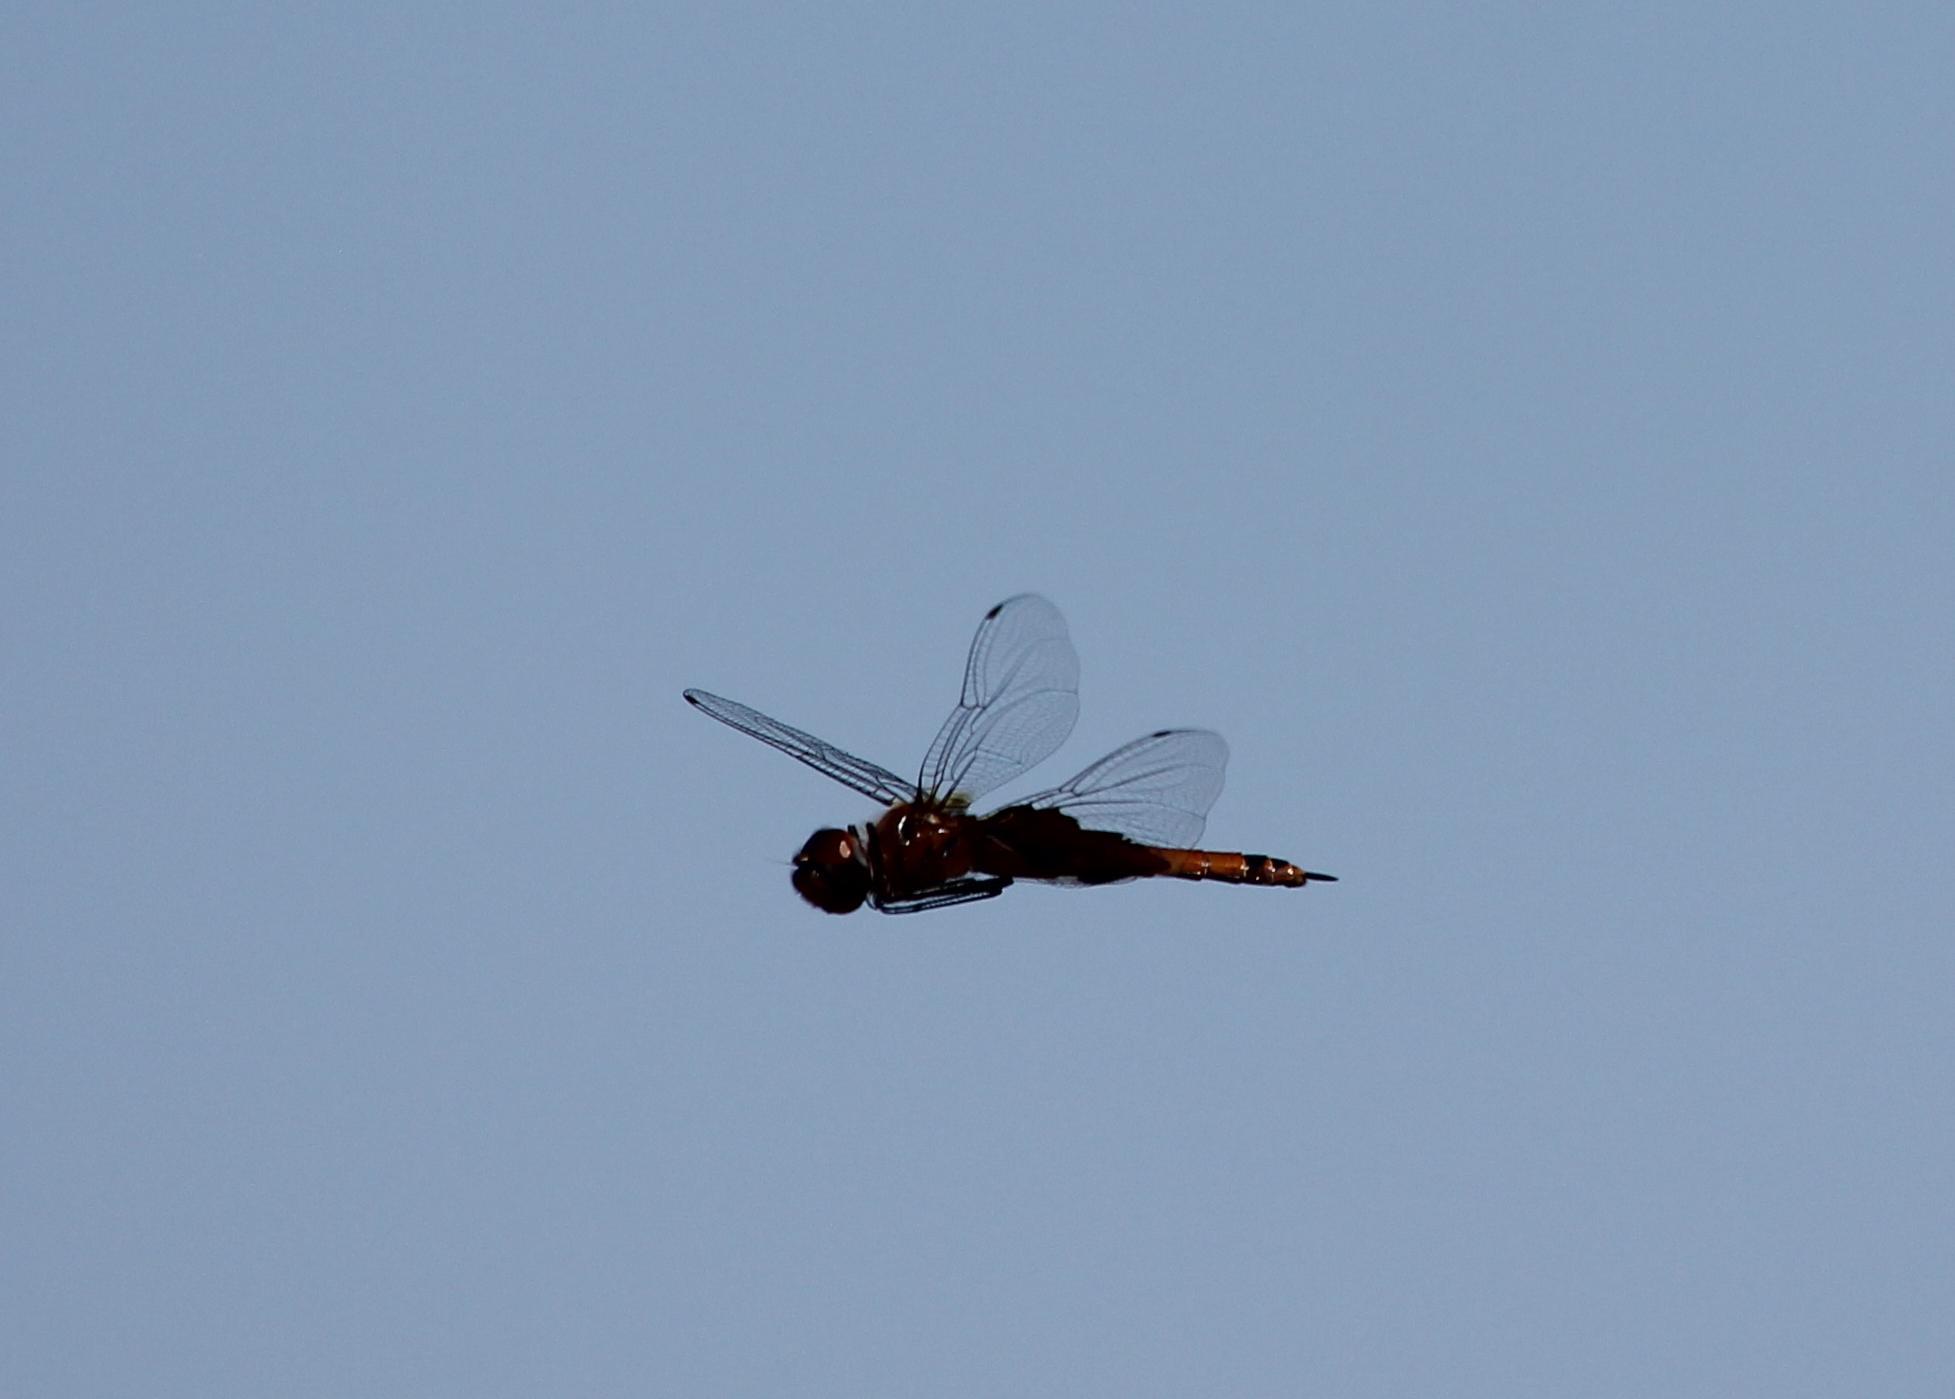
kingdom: Animalia
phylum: Arthropoda
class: Insecta
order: Odonata
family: Libellulidae
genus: Tramea
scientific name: Tramea carolina
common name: Carolina saddlebags
